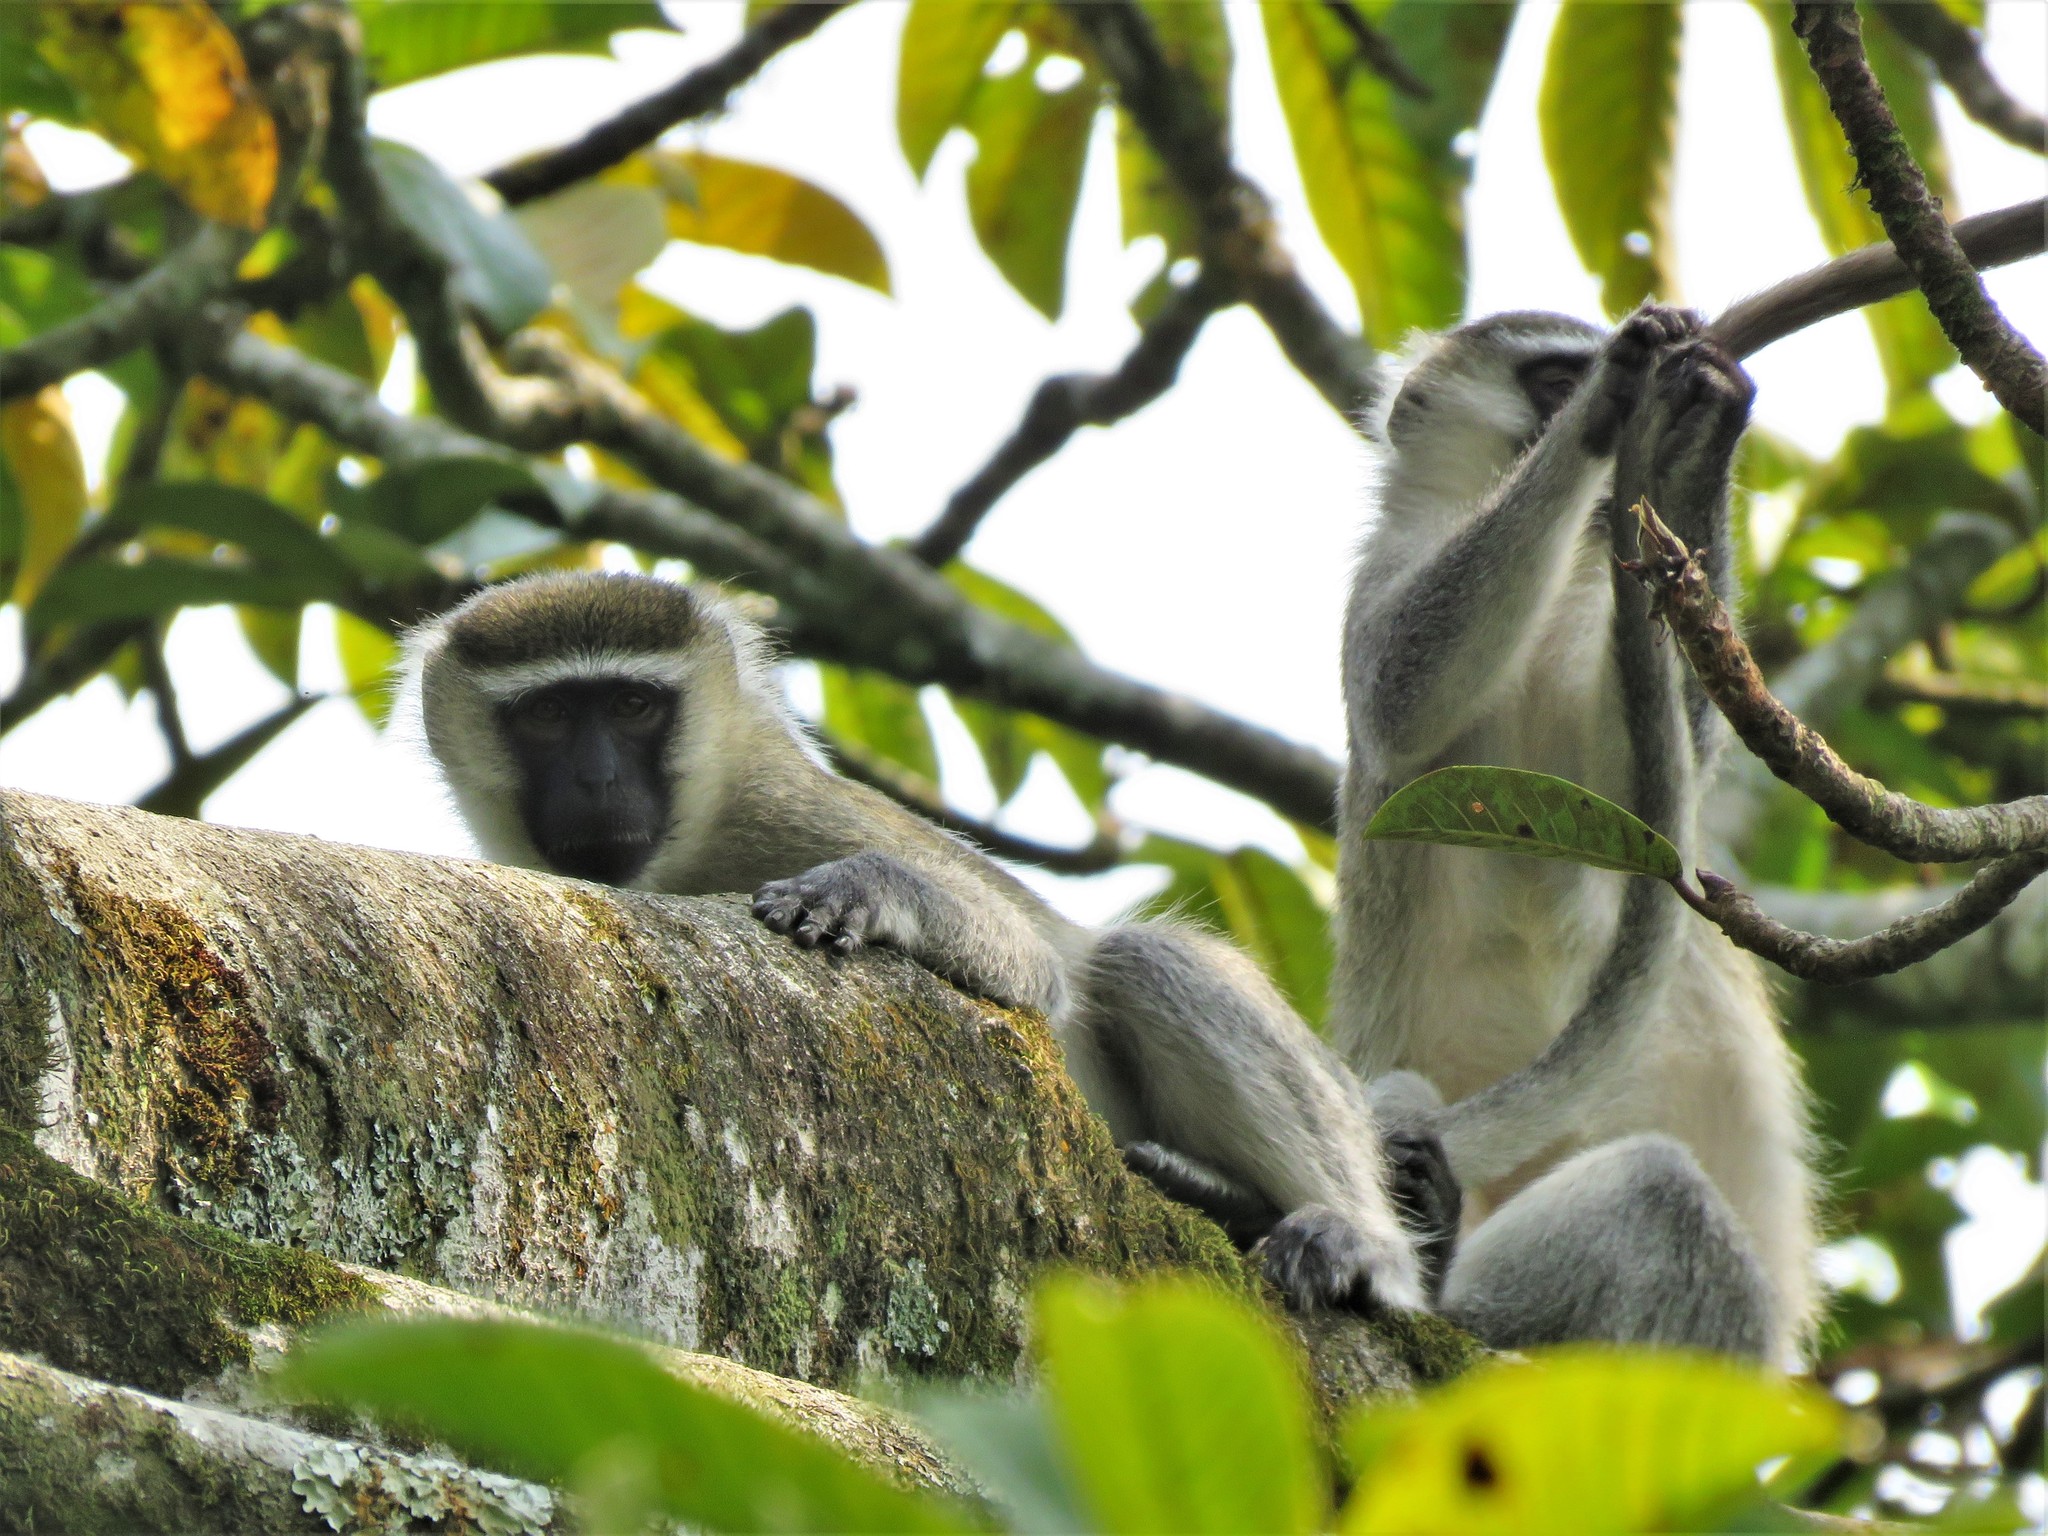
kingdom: Animalia
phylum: Chordata
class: Mammalia
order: Primates
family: Cercopithecidae
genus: Chlorocebus
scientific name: Chlorocebus pygerythrus
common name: Vervet monkey
